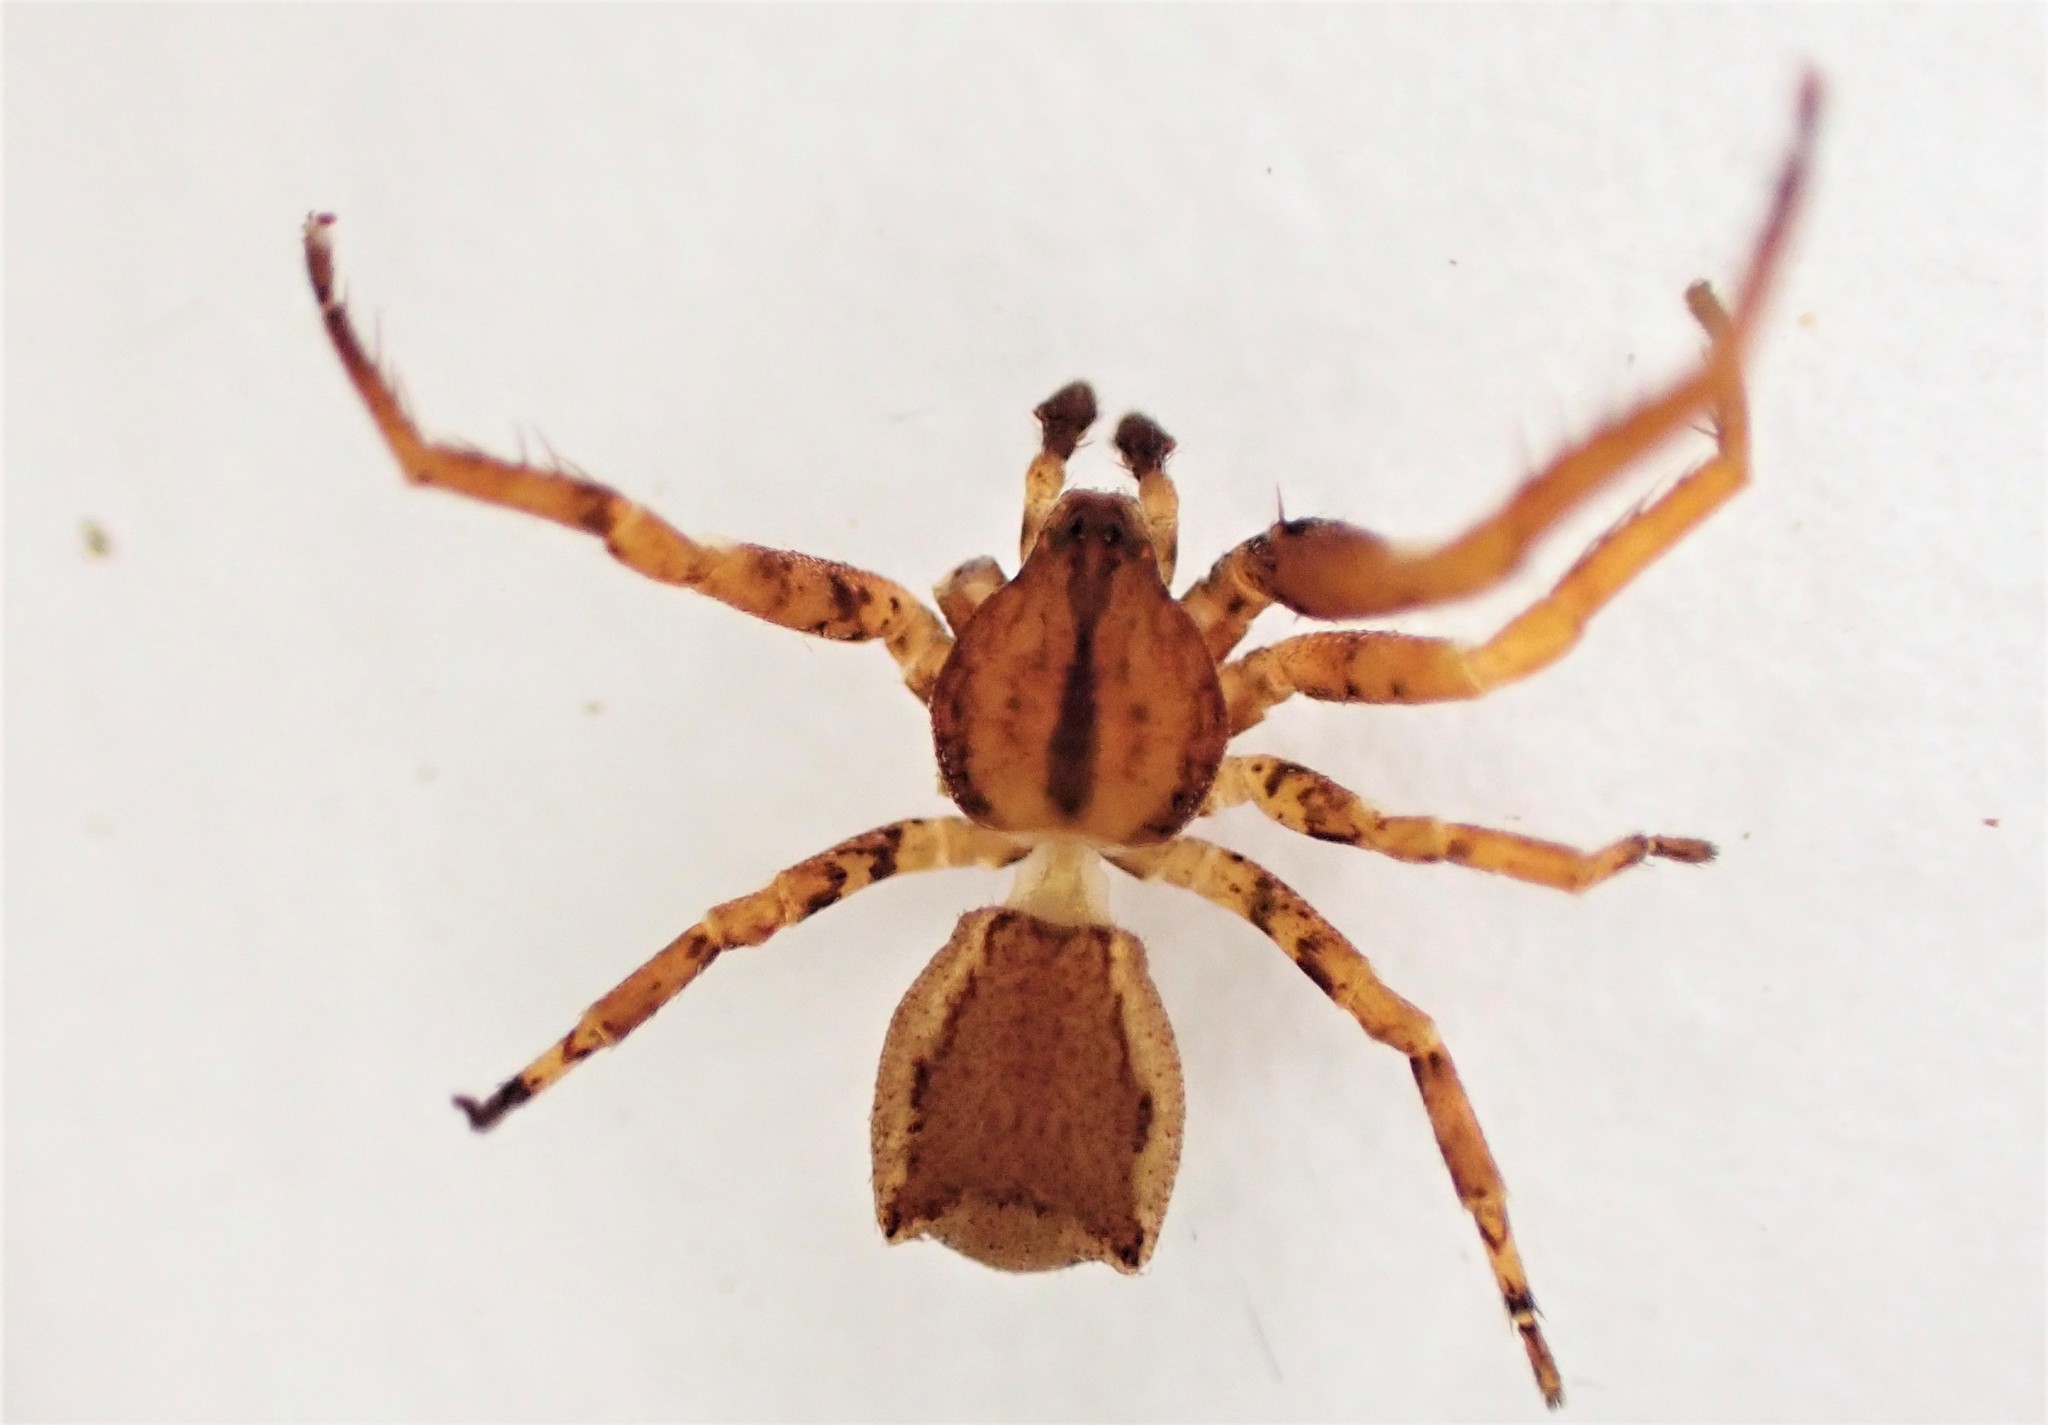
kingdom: Animalia
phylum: Arthropoda
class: Arachnida
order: Araneae
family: Thomisidae
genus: Sidymella
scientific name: Sidymella angulata
